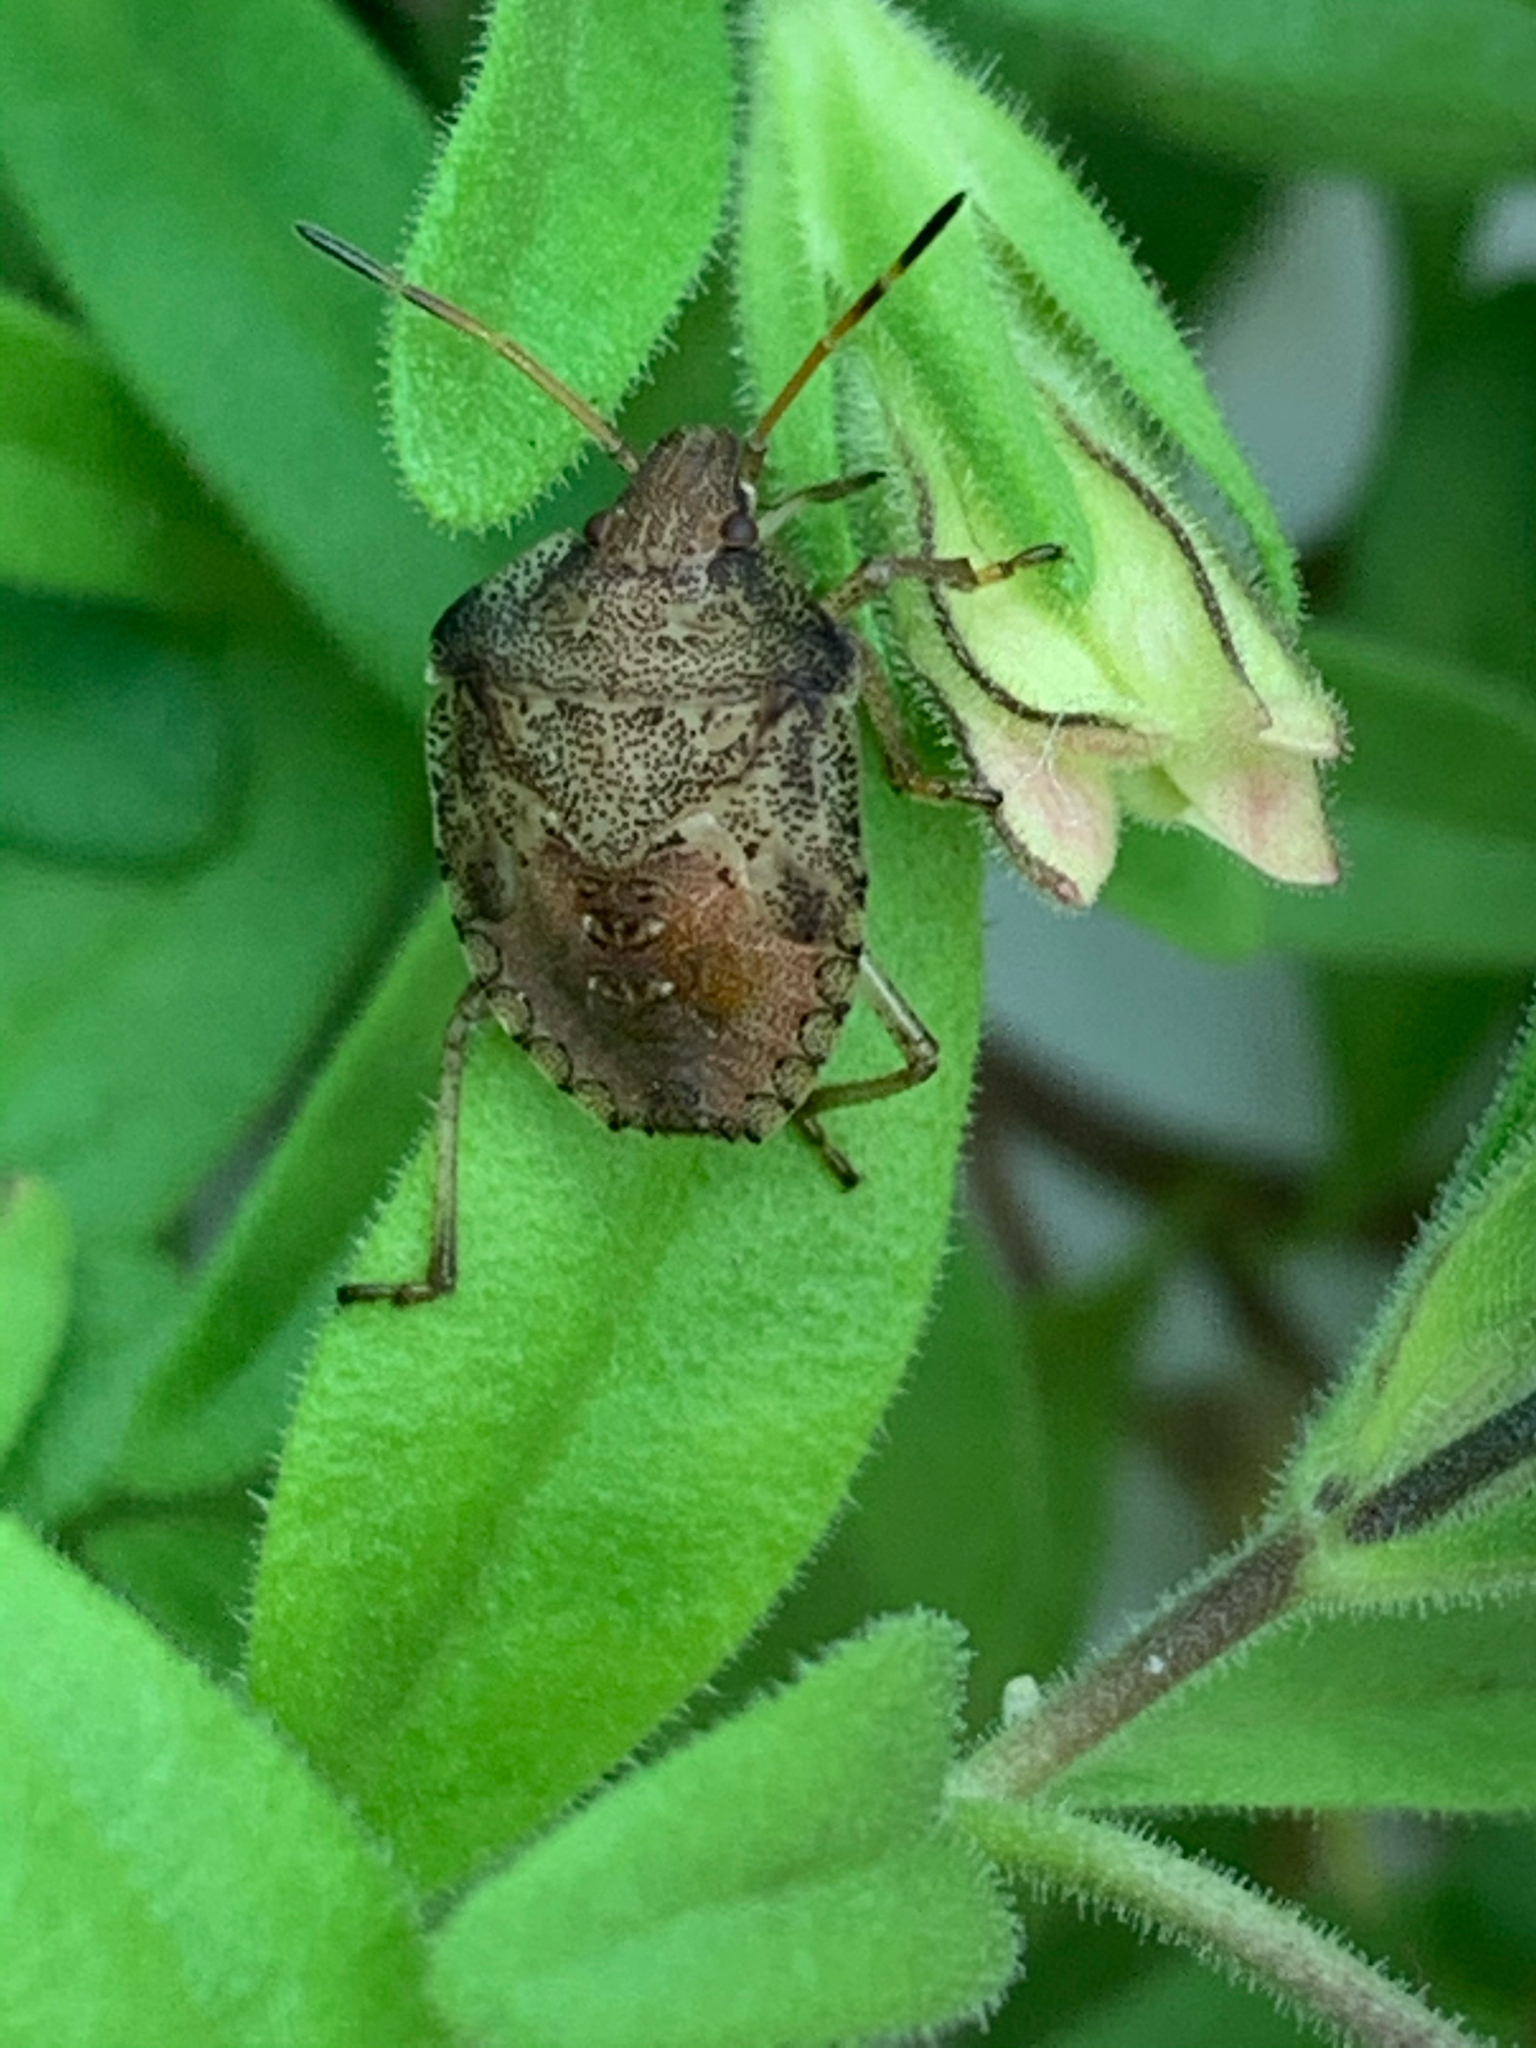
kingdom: Animalia
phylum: Arthropoda
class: Insecta
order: Hemiptera
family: Pentatomidae
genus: Euschistus
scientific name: Euschistus
